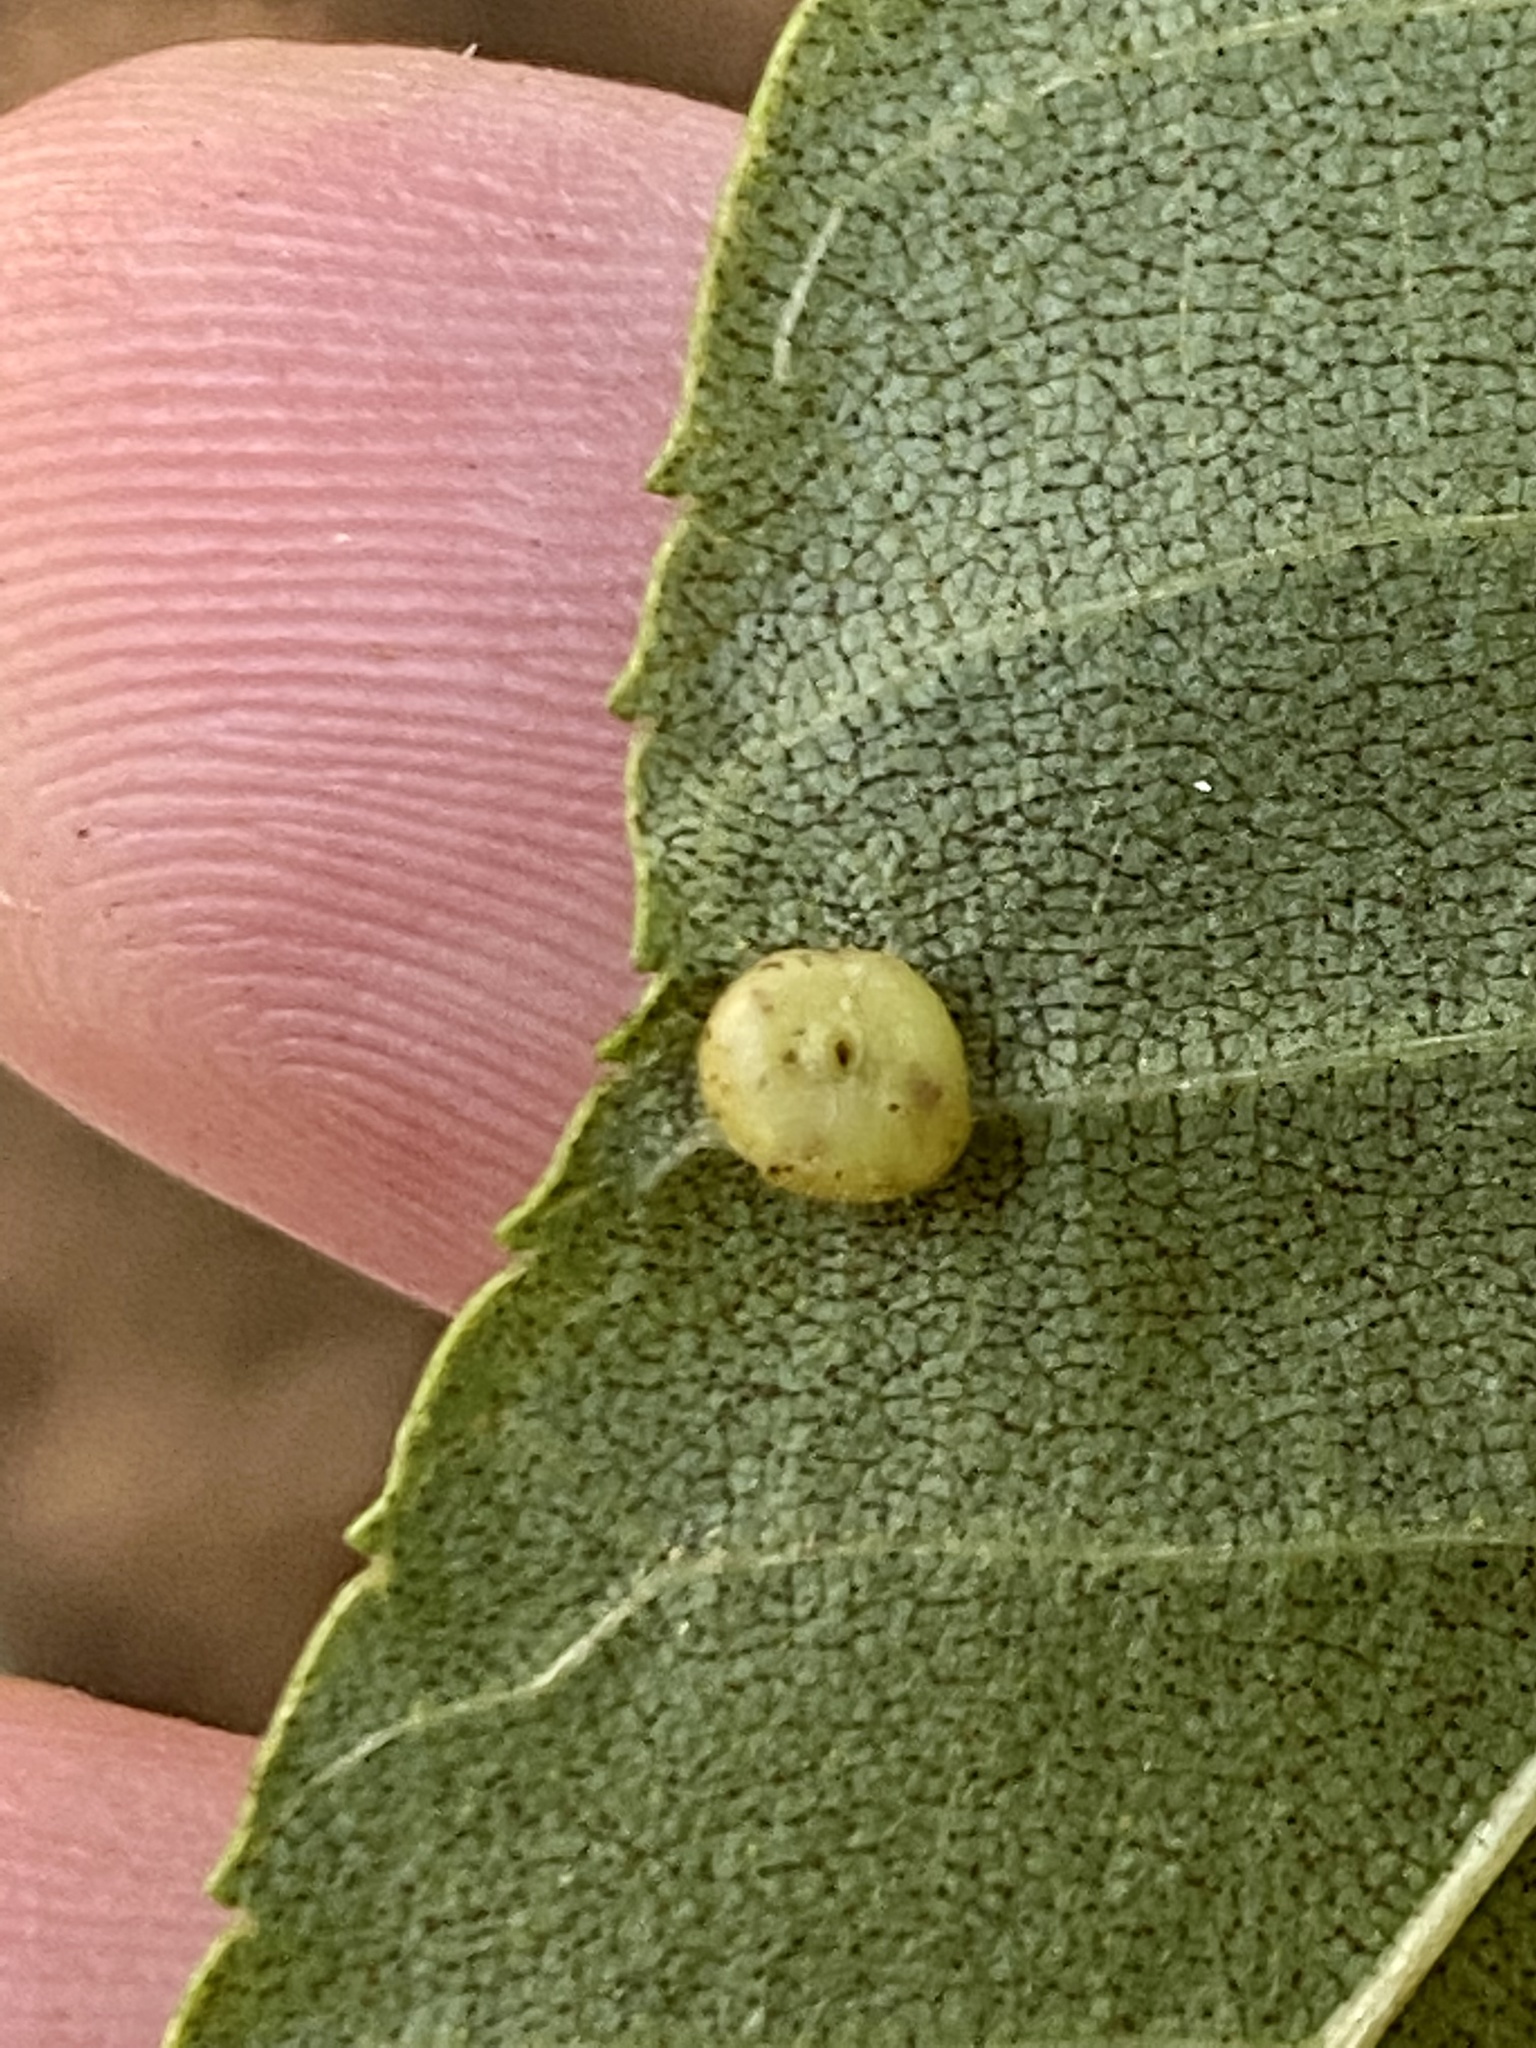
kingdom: Animalia
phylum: Arthropoda
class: Insecta
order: Diptera
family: Cecidomyiidae
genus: Caryomyia
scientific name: Caryomyia thompsoni
